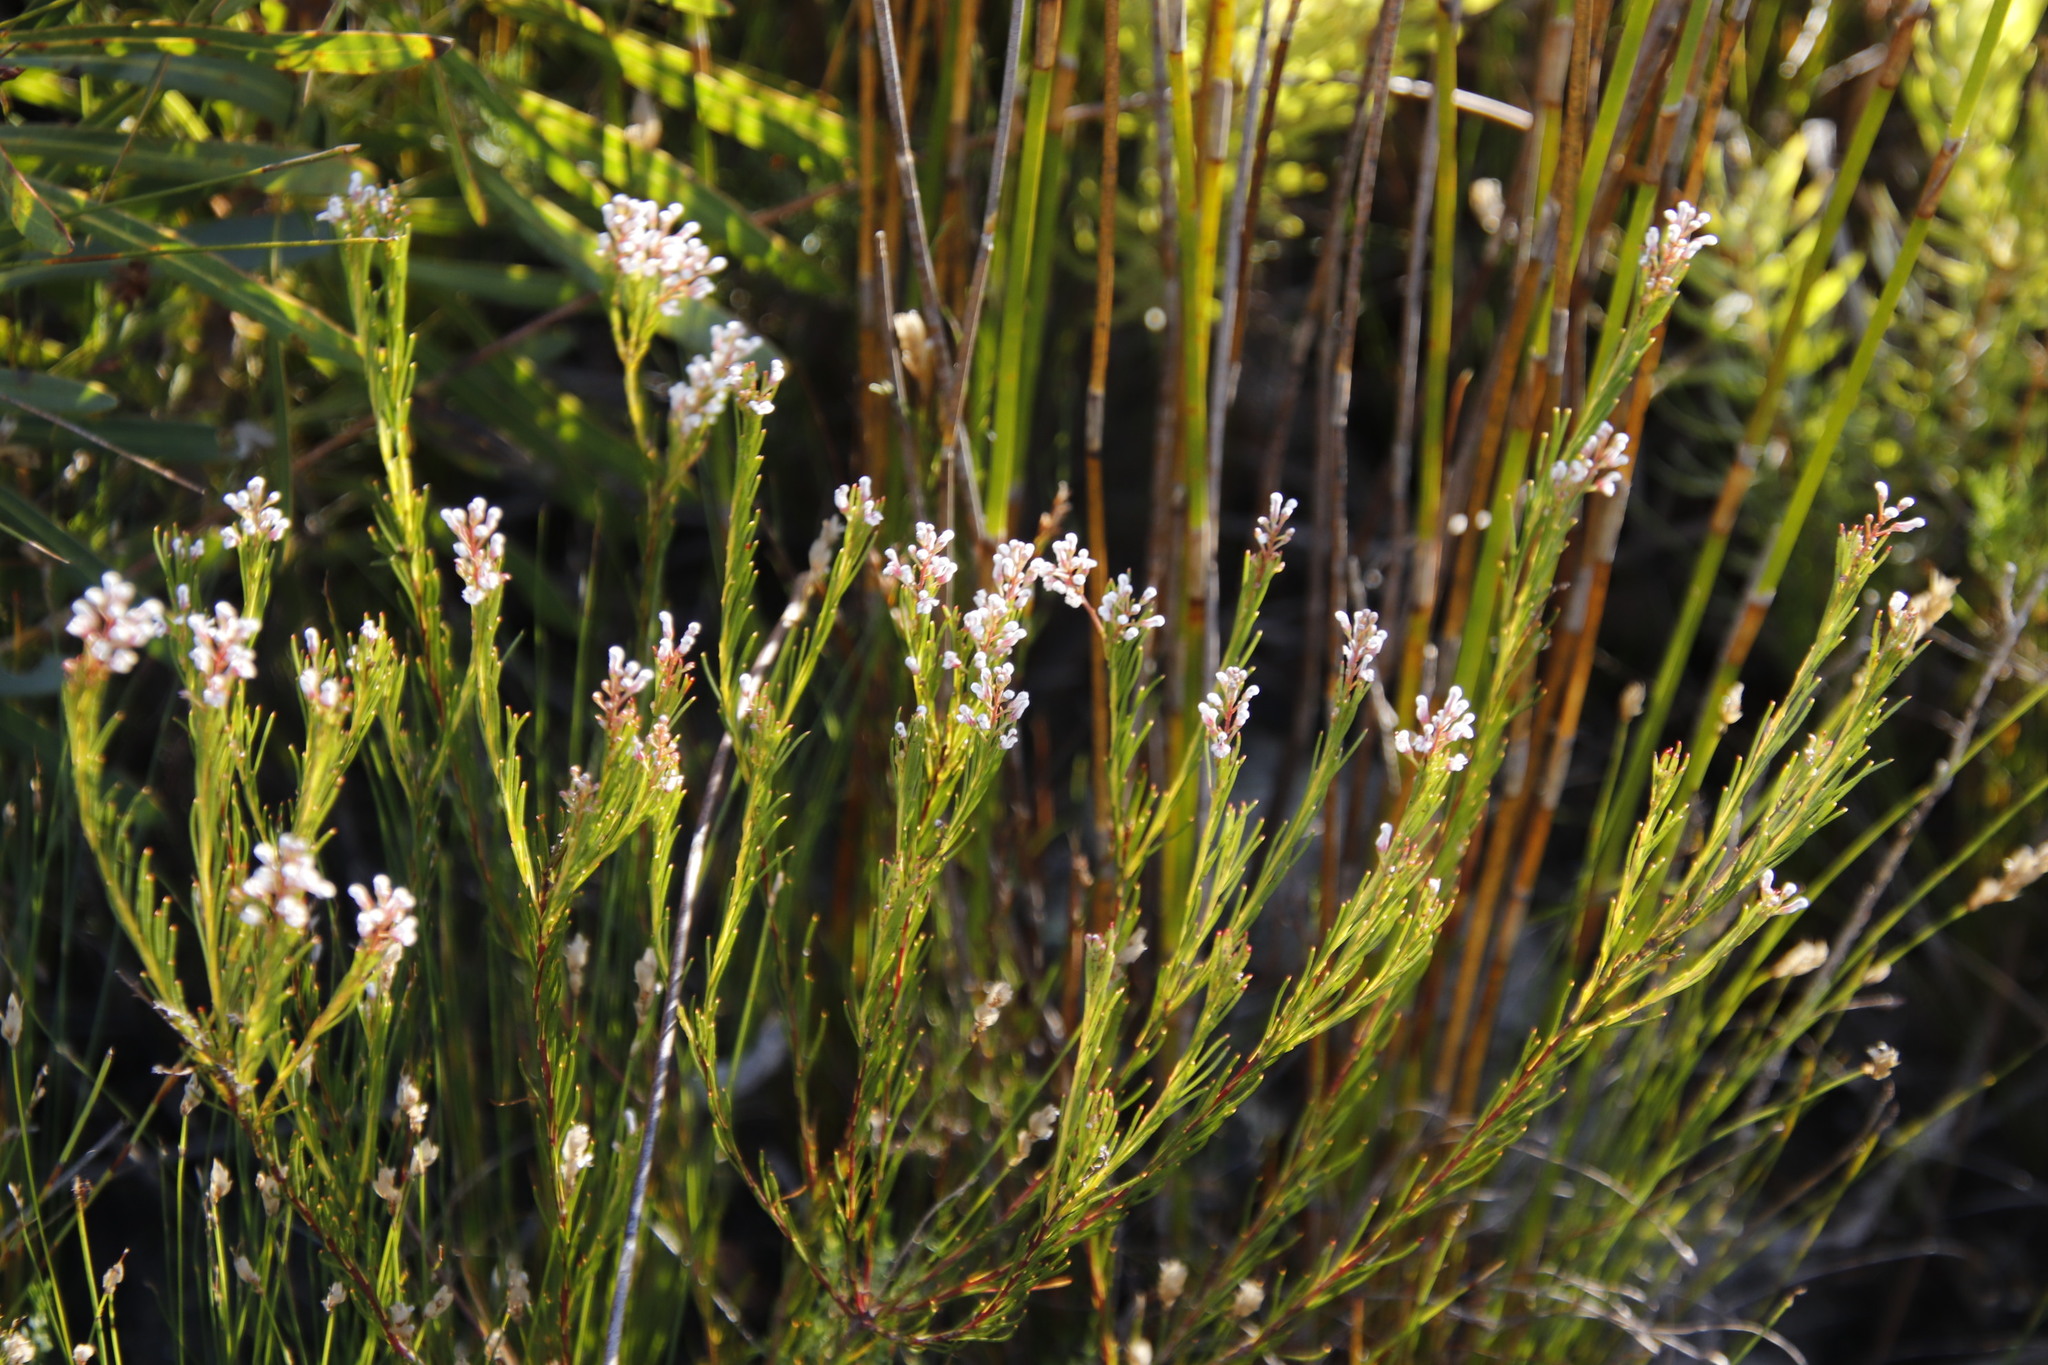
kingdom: Plantae
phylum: Tracheophyta
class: Magnoliopsida
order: Proteales
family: Proteaceae
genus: Spatalla
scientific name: Spatalla racemosa
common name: Lax-stalked spoon
